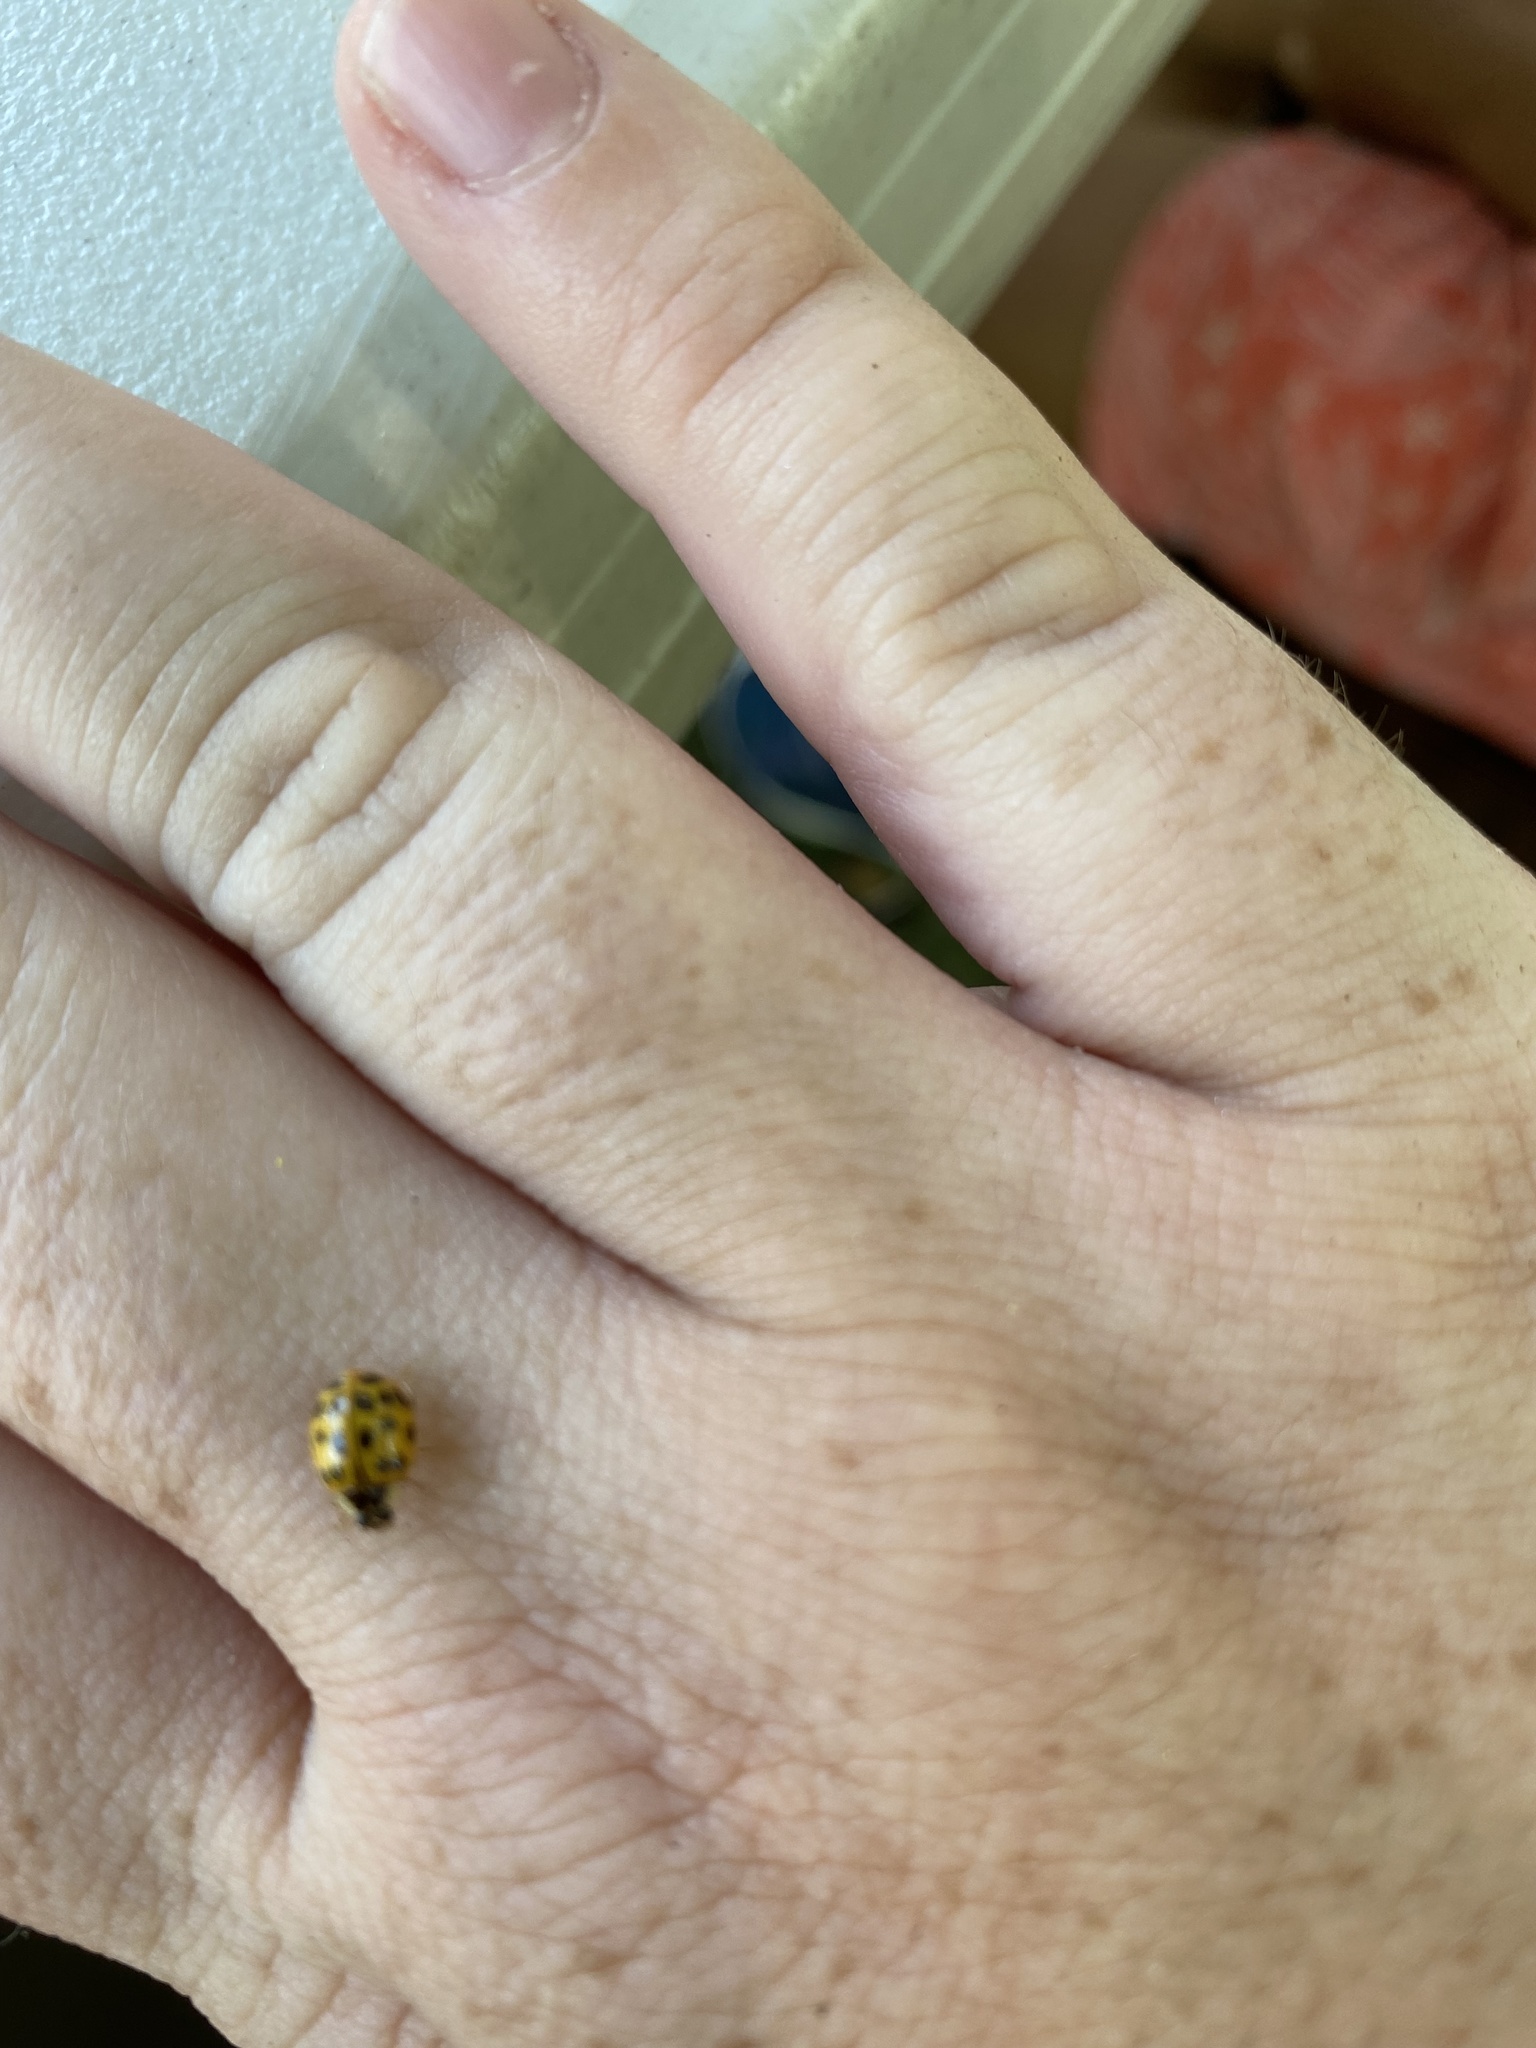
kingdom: Animalia
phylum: Arthropoda
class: Insecta
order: Coleoptera
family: Coccinellidae
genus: Harmonia
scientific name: Harmonia axyridis
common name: Harlequin ladybird
